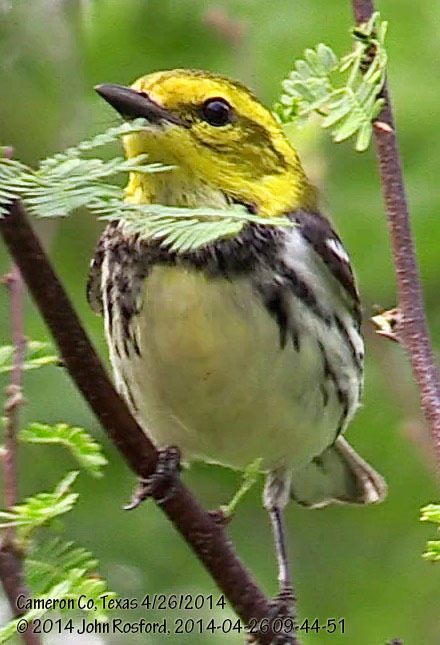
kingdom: Animalia
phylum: Chordata
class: Aves
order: Passeriformes
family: Parulidae
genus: Setophaga
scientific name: Setophaga virens
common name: Black-throated green warbler
